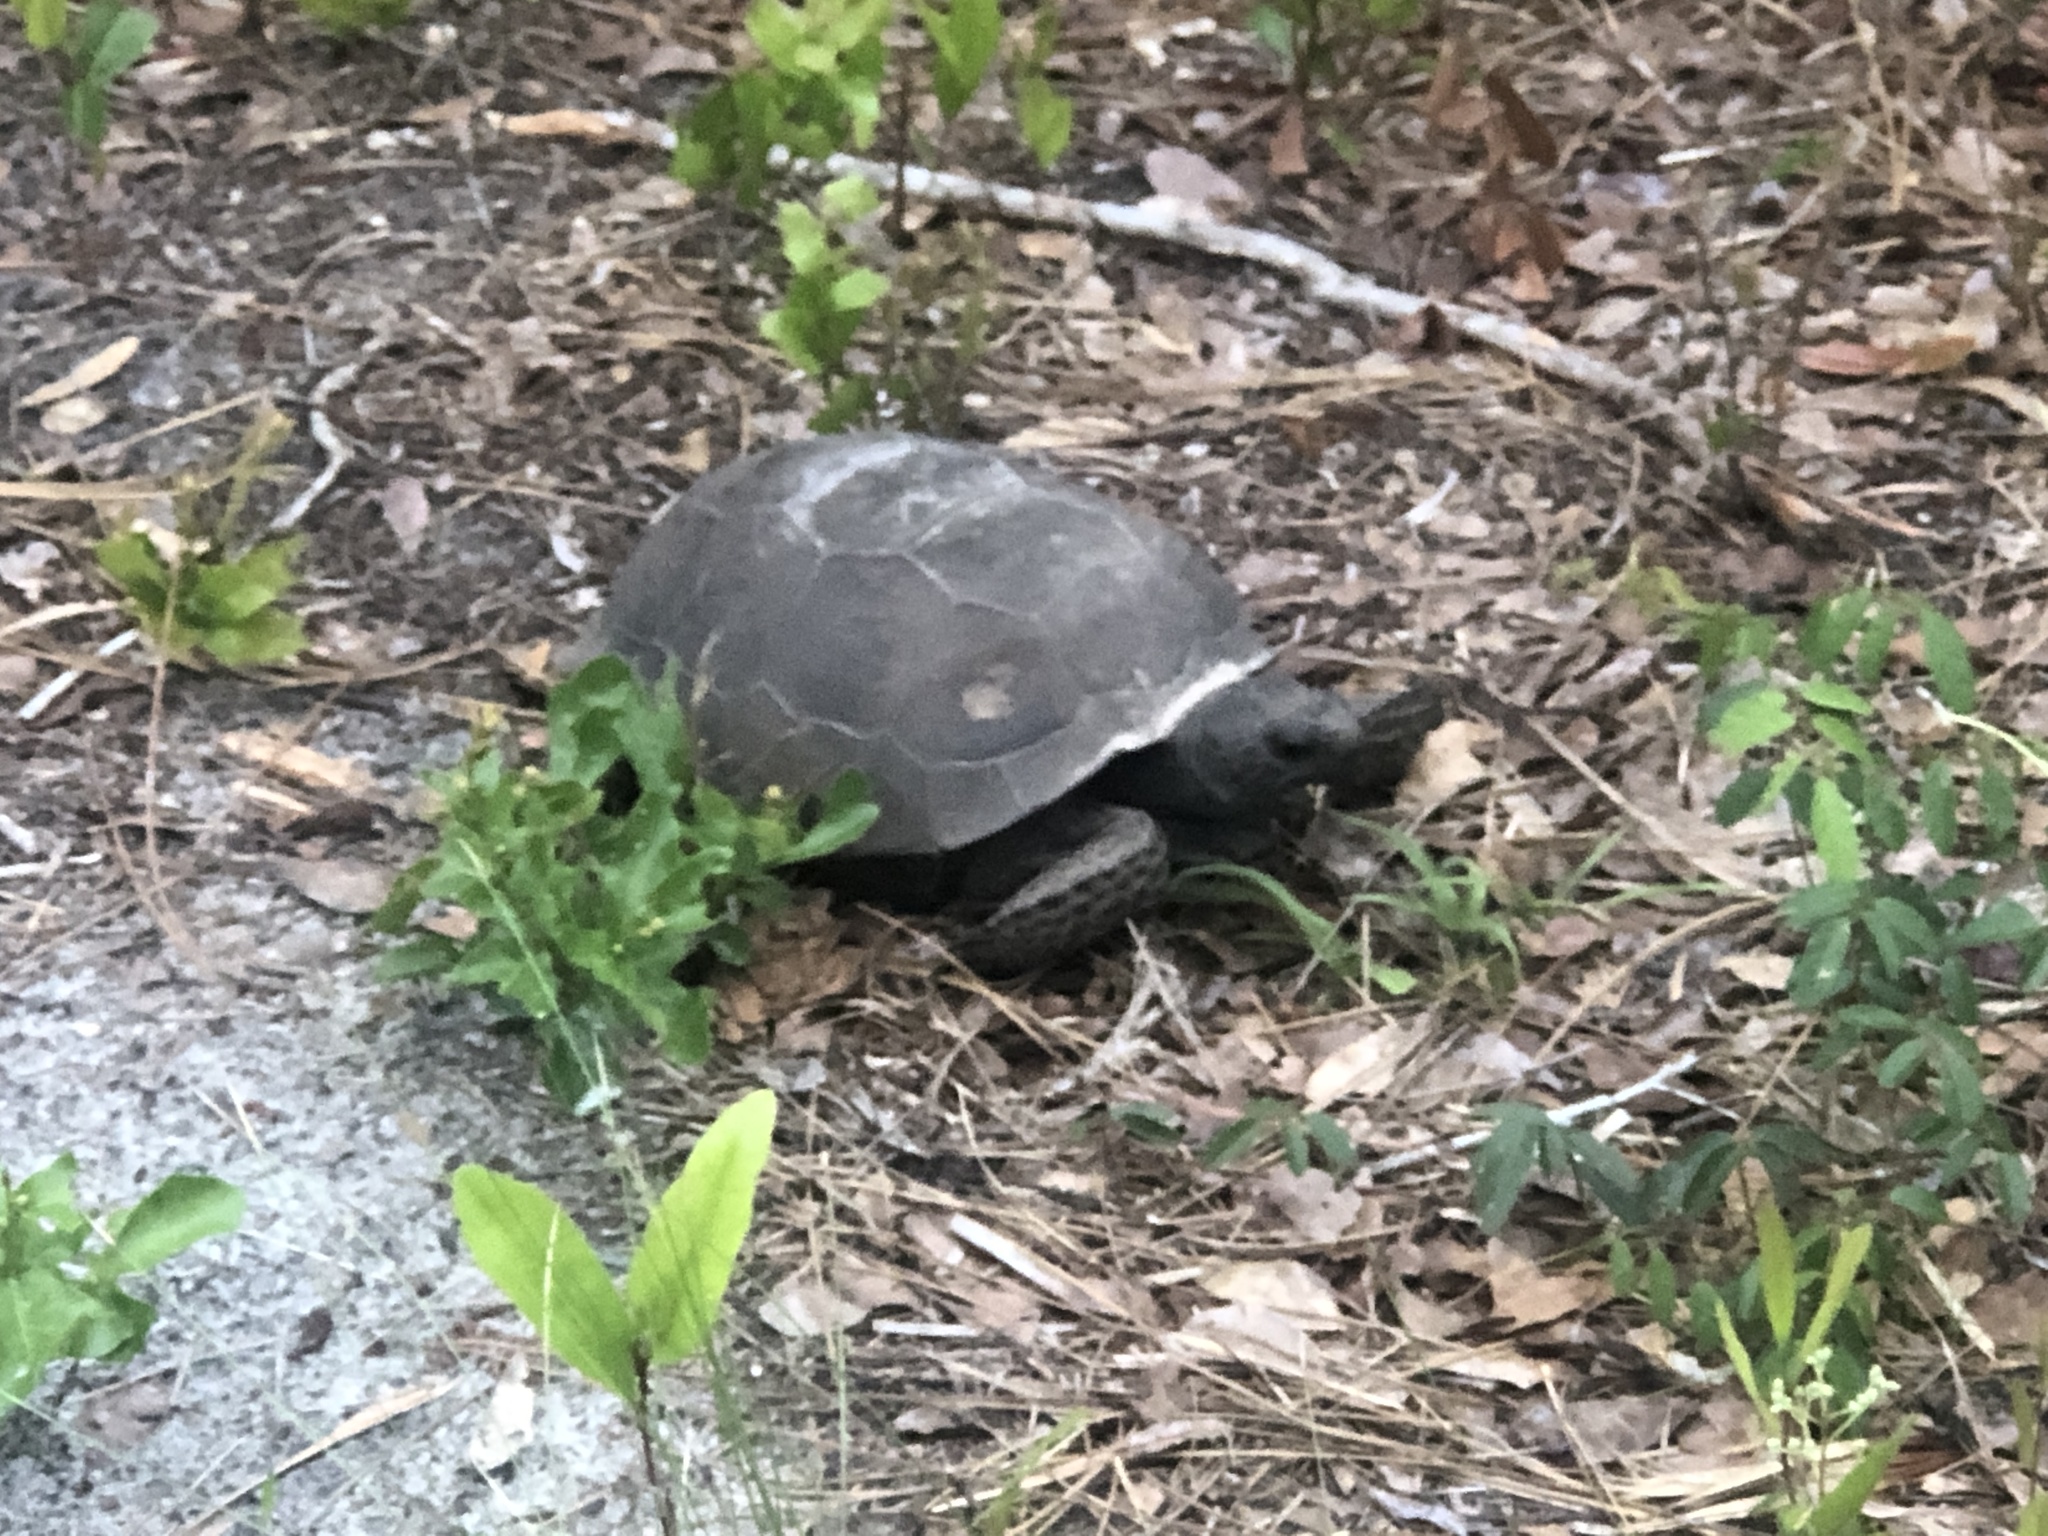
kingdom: Animalia
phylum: Chordata
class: Testudines
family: Testudinidae
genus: Gopherus
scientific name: Gopherus polyphemus
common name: Florida gopher tortoise
